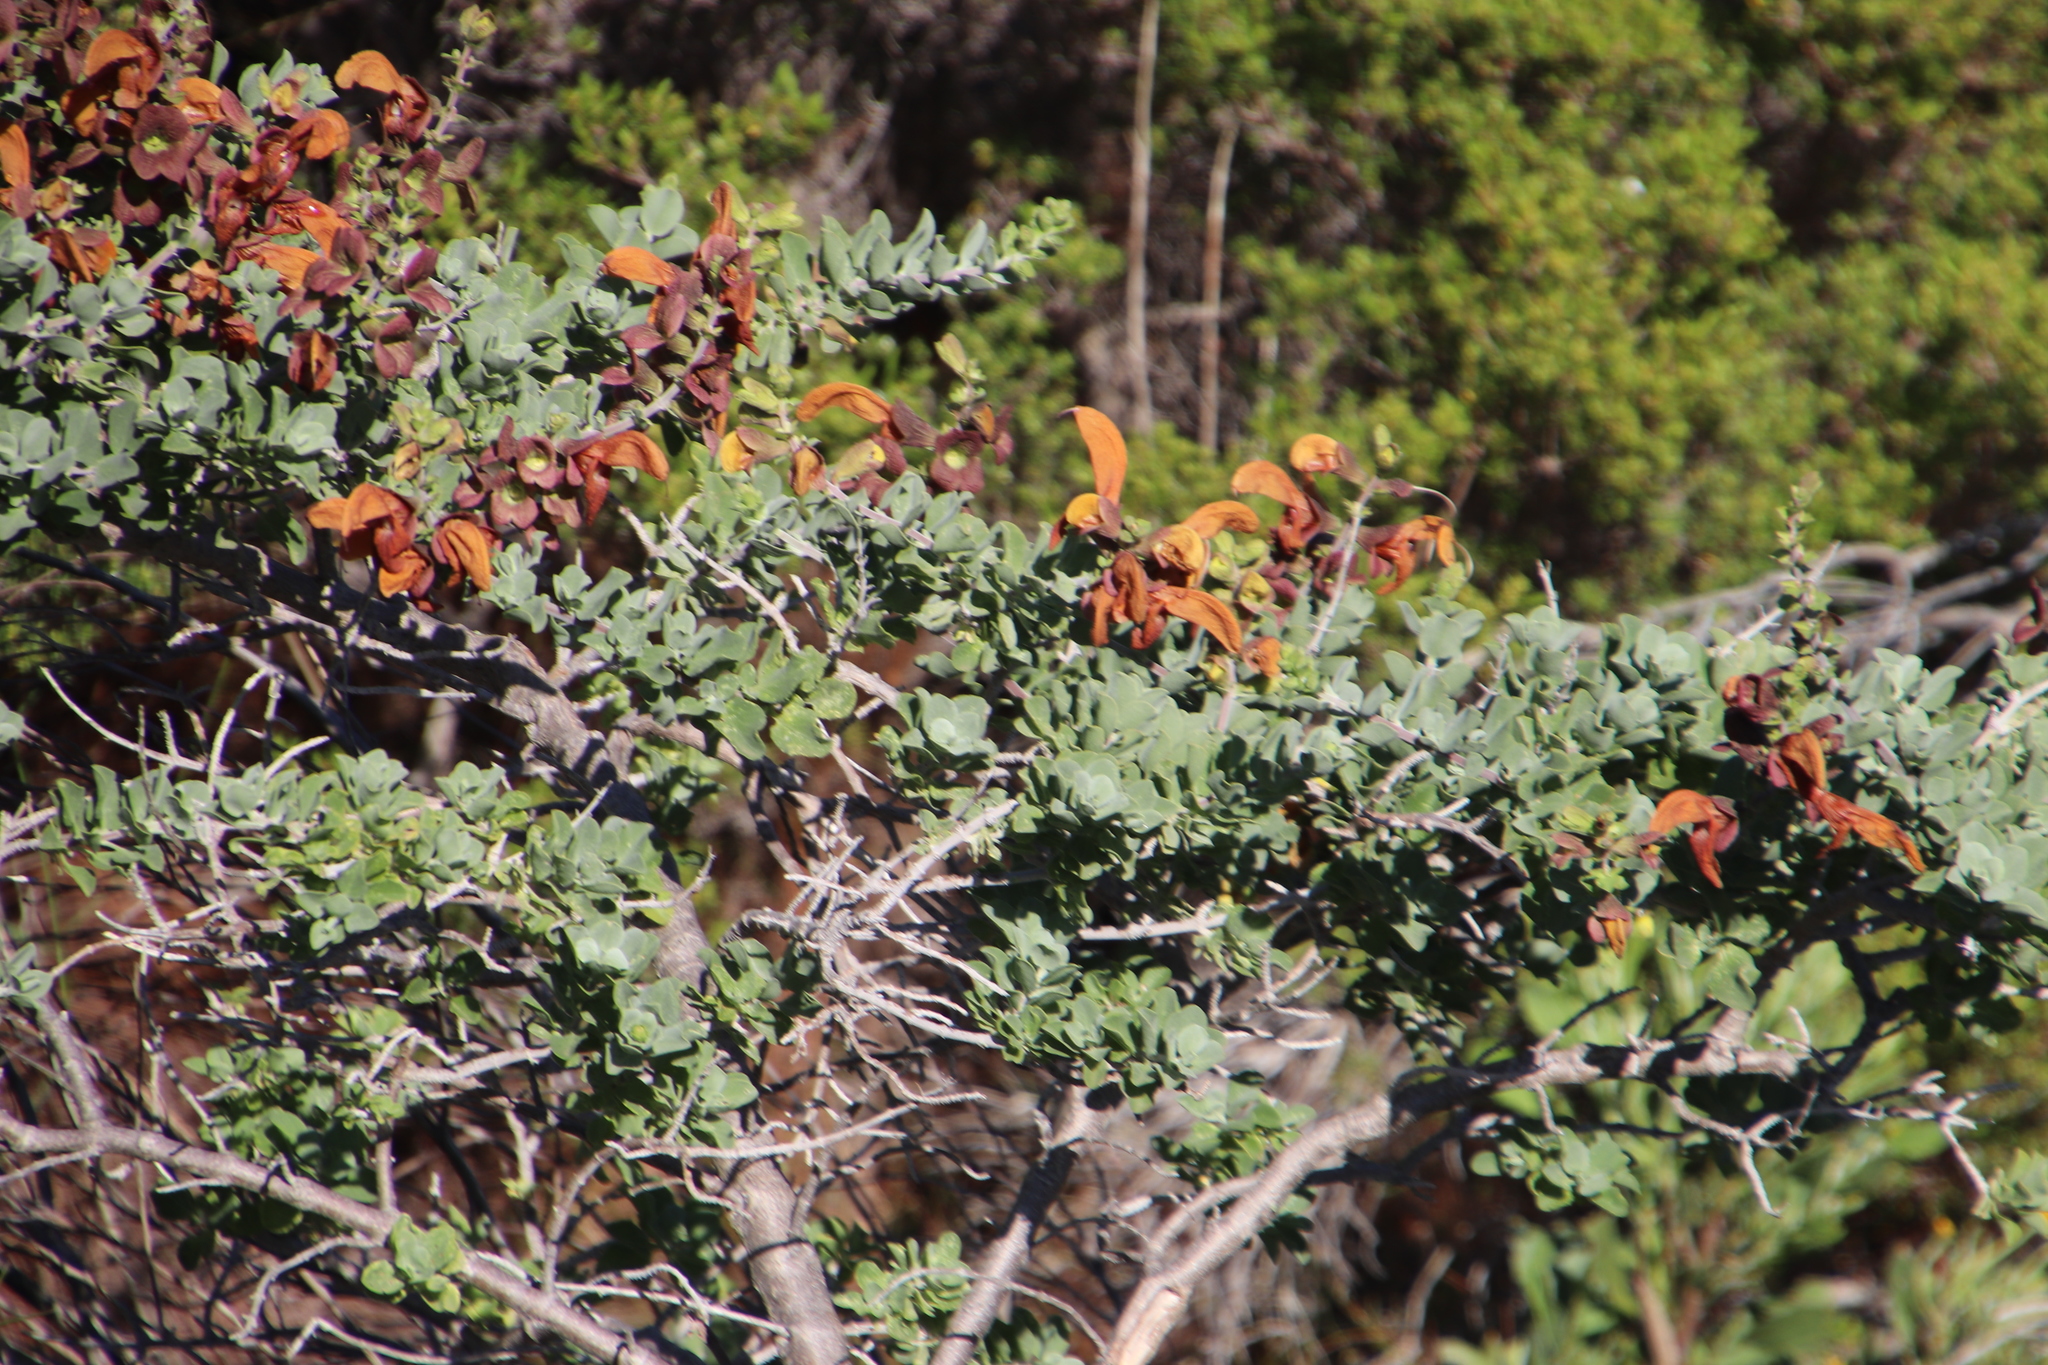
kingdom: Plantae
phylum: Tracheophyta
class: Magnoliopsida
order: Lamiales
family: Lamiaceae
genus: Salvia
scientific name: Salvia aurea
